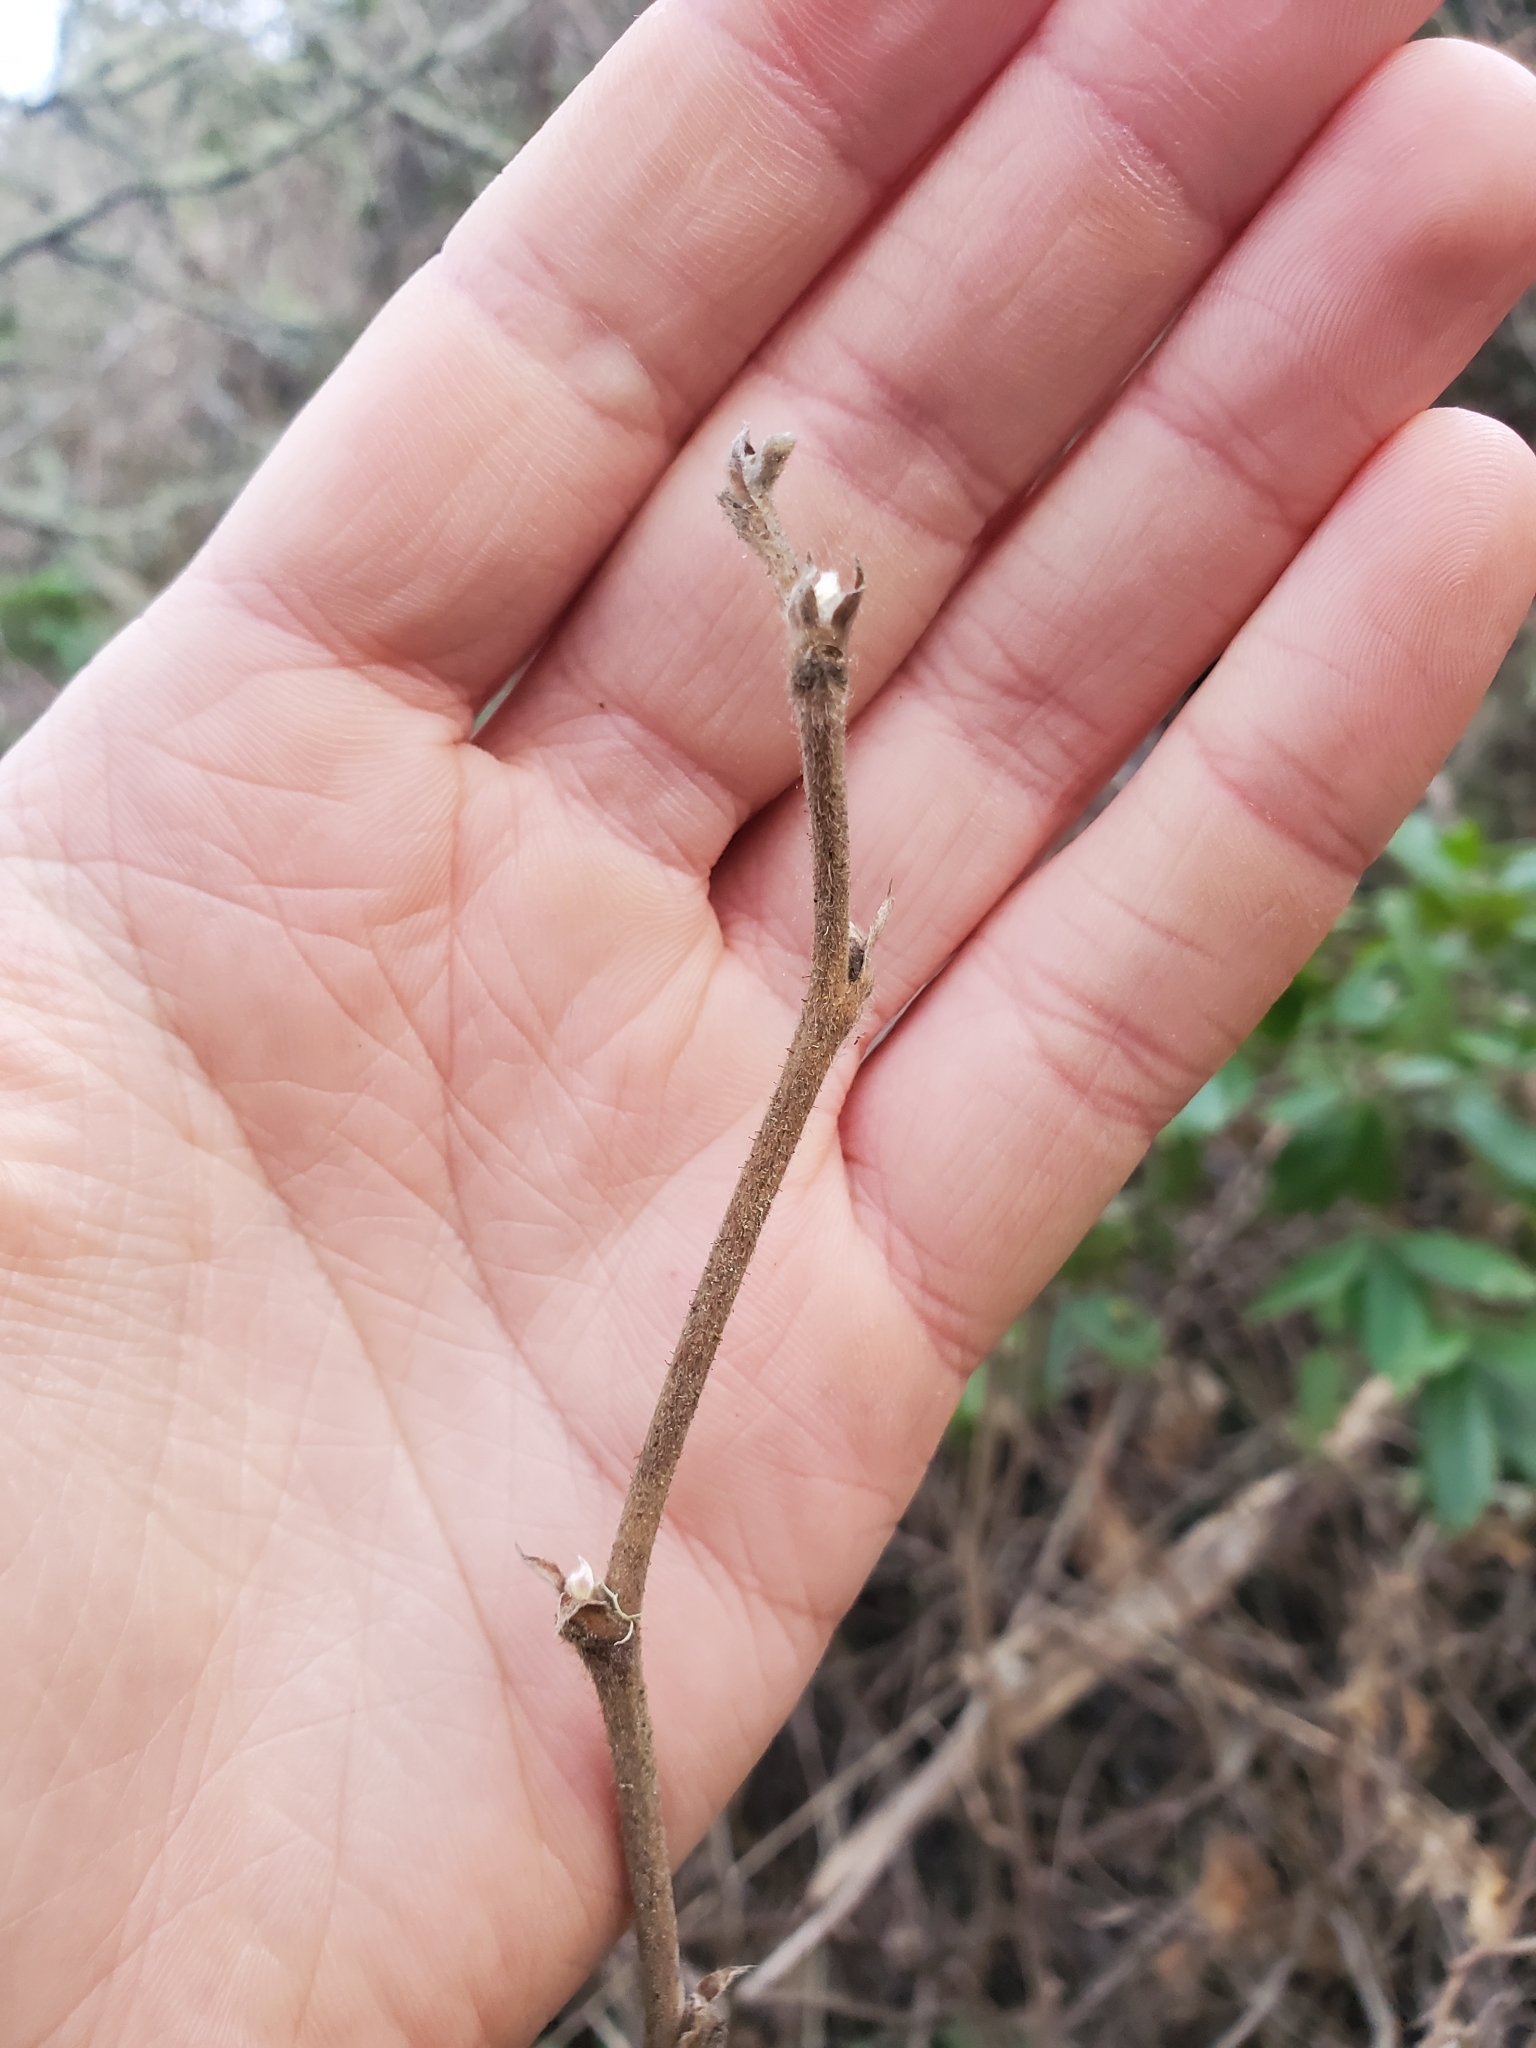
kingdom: Plantae
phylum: Tracheophyta
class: Magnoliopsida
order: Rosales
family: Rosaceae
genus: Rubus
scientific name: Rubus parviflorus
